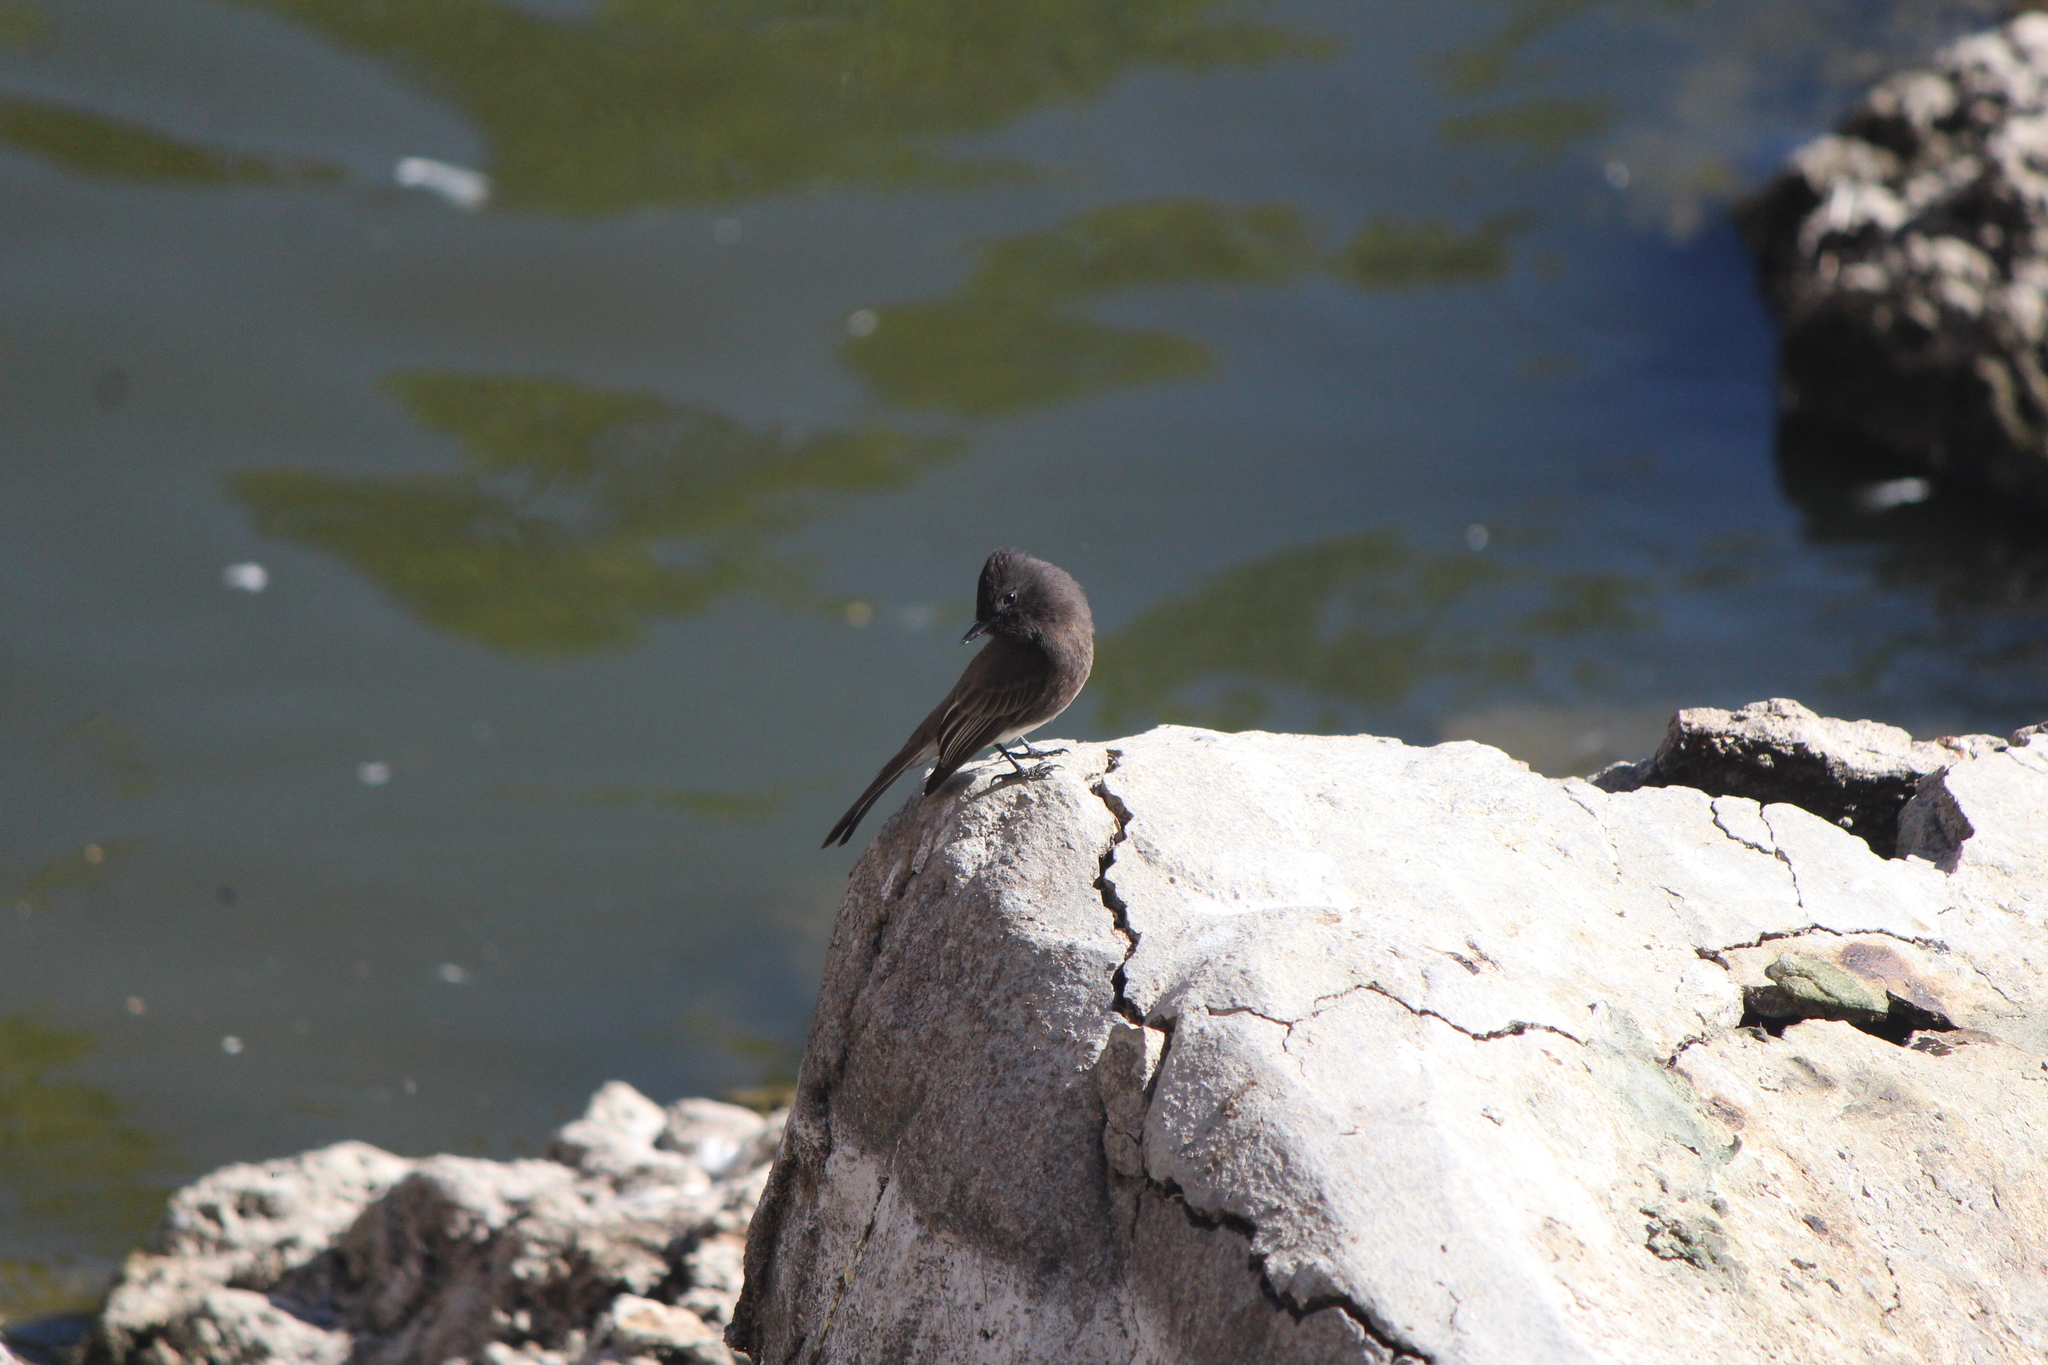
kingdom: Animalia
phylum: Chordata
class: Aves
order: Passeriformes
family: Tyrannidae
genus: Sayornis
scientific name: Sayornis nigricans
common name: Black phoebe
